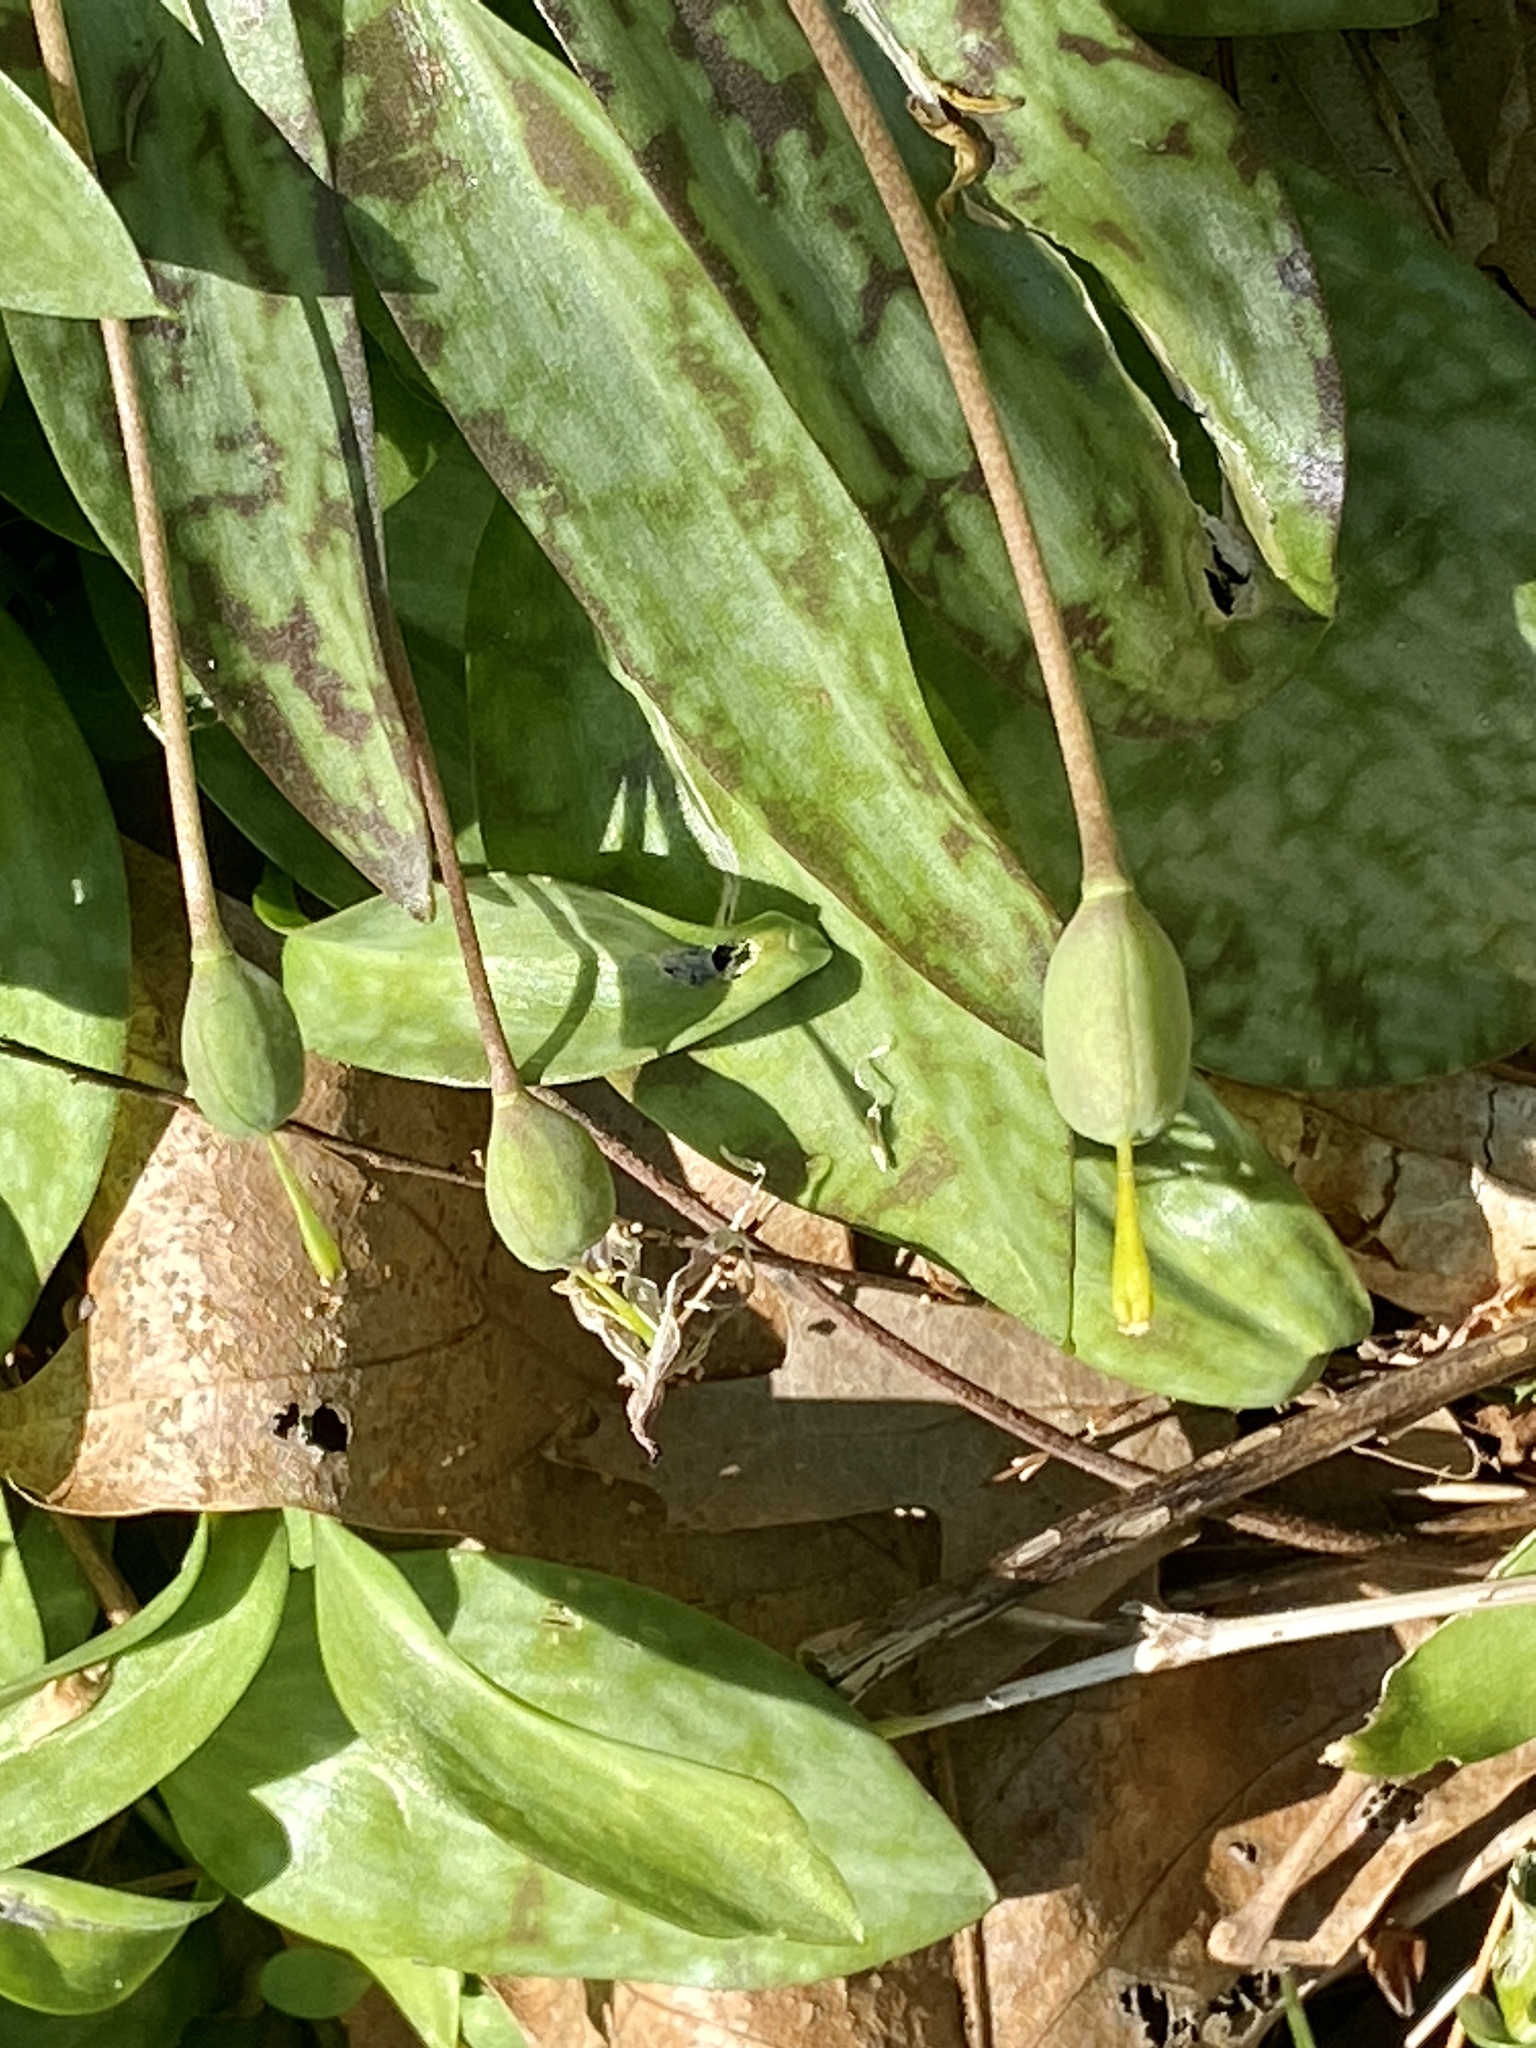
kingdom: Plantae
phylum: Tracheophyta
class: Liliopsida
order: Liliales
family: Liliaceae
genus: Erythronium
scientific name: Erythronium americanum
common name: Yellow adder's-tongue
